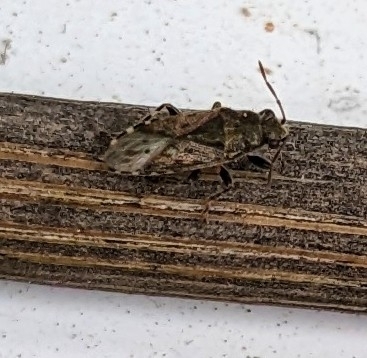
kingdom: Animalia
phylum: Arthropoda
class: Insecta
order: Hemiptera
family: Heterogastridae
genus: Heterogaster
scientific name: Heterogaster urticae
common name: Seed bug
